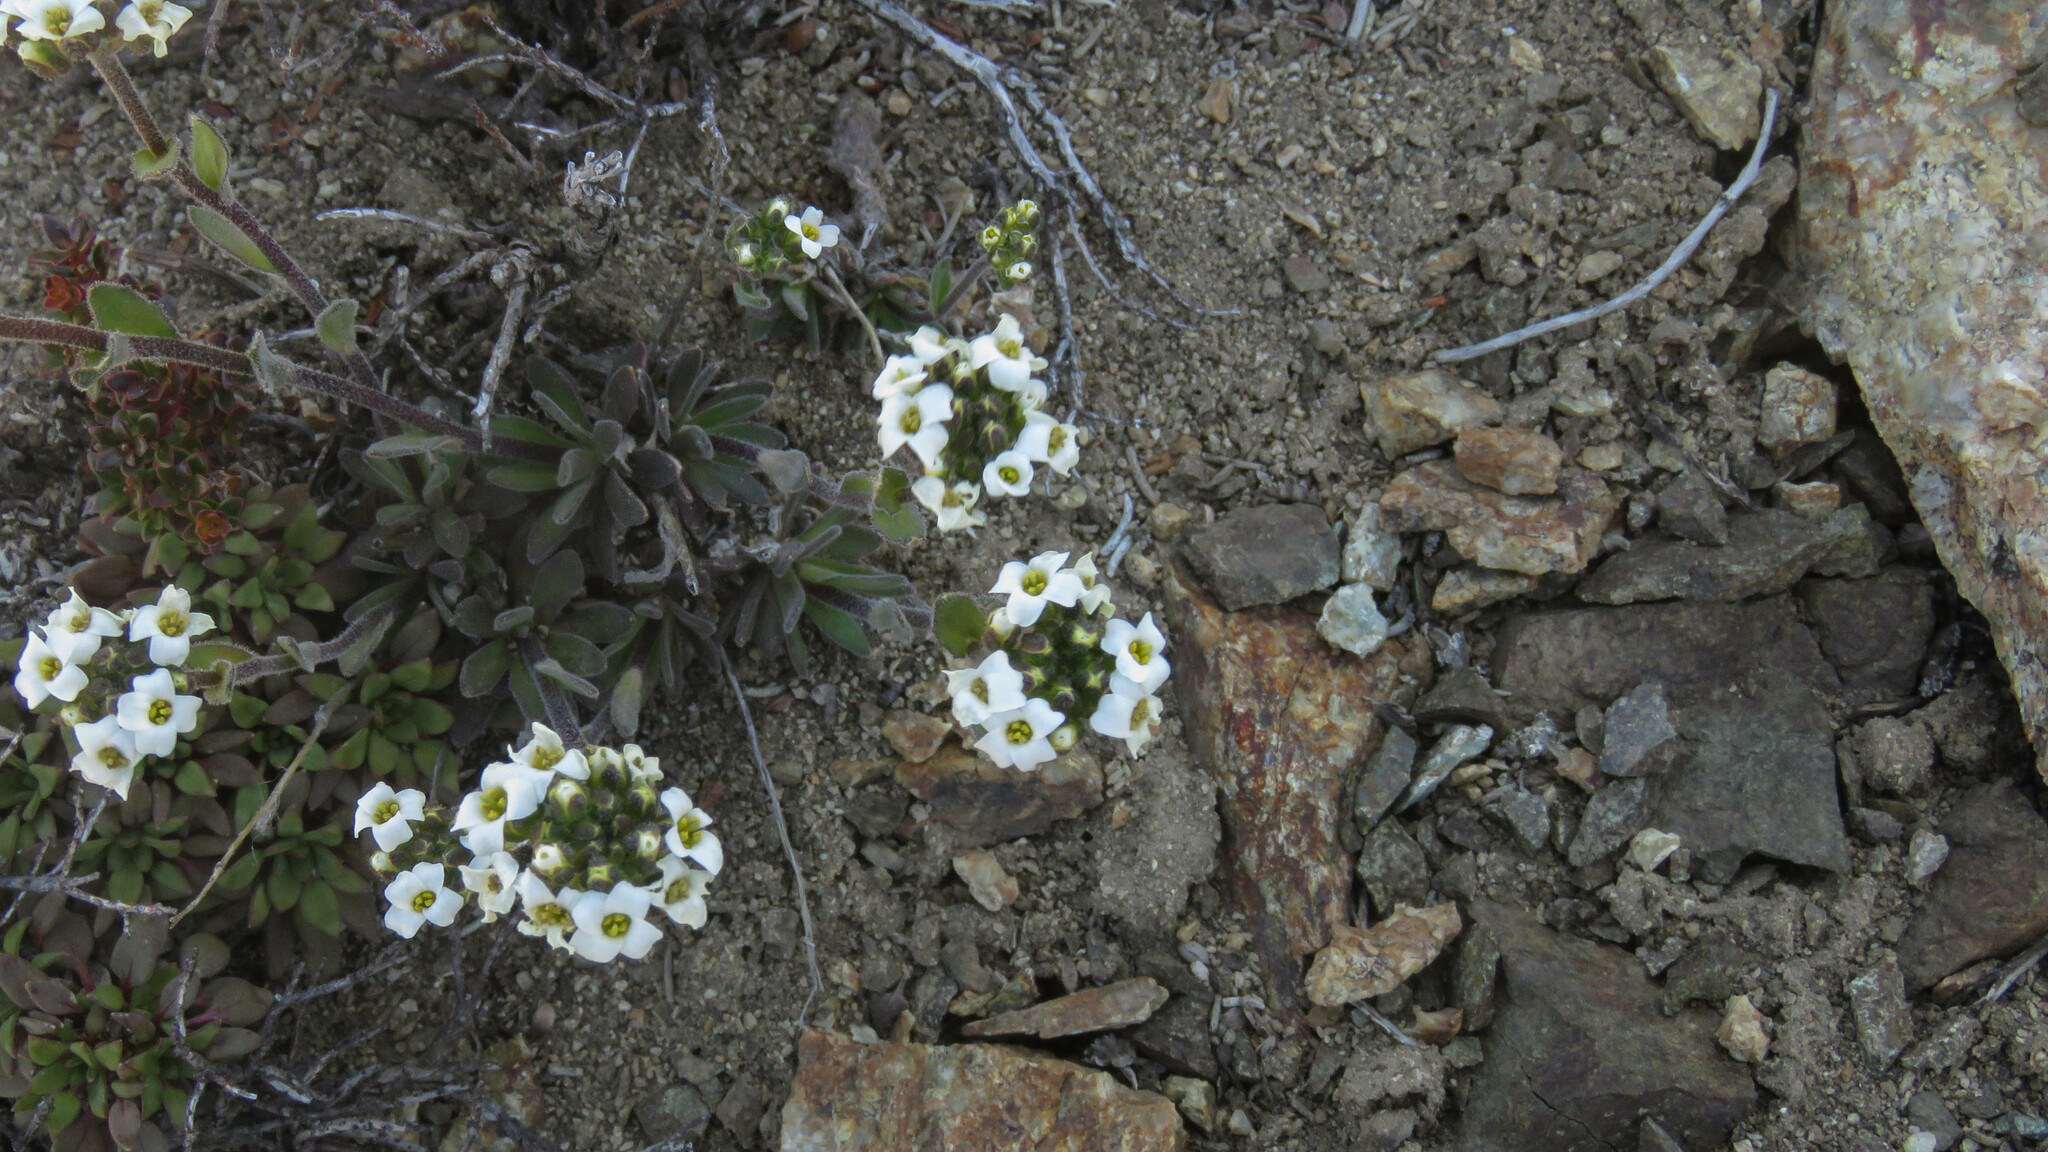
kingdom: Plantae
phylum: Tracheophyta
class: Magnoliopsida
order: Brassicales
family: Brassicaceae
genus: Draba
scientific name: Draba gilliesii
